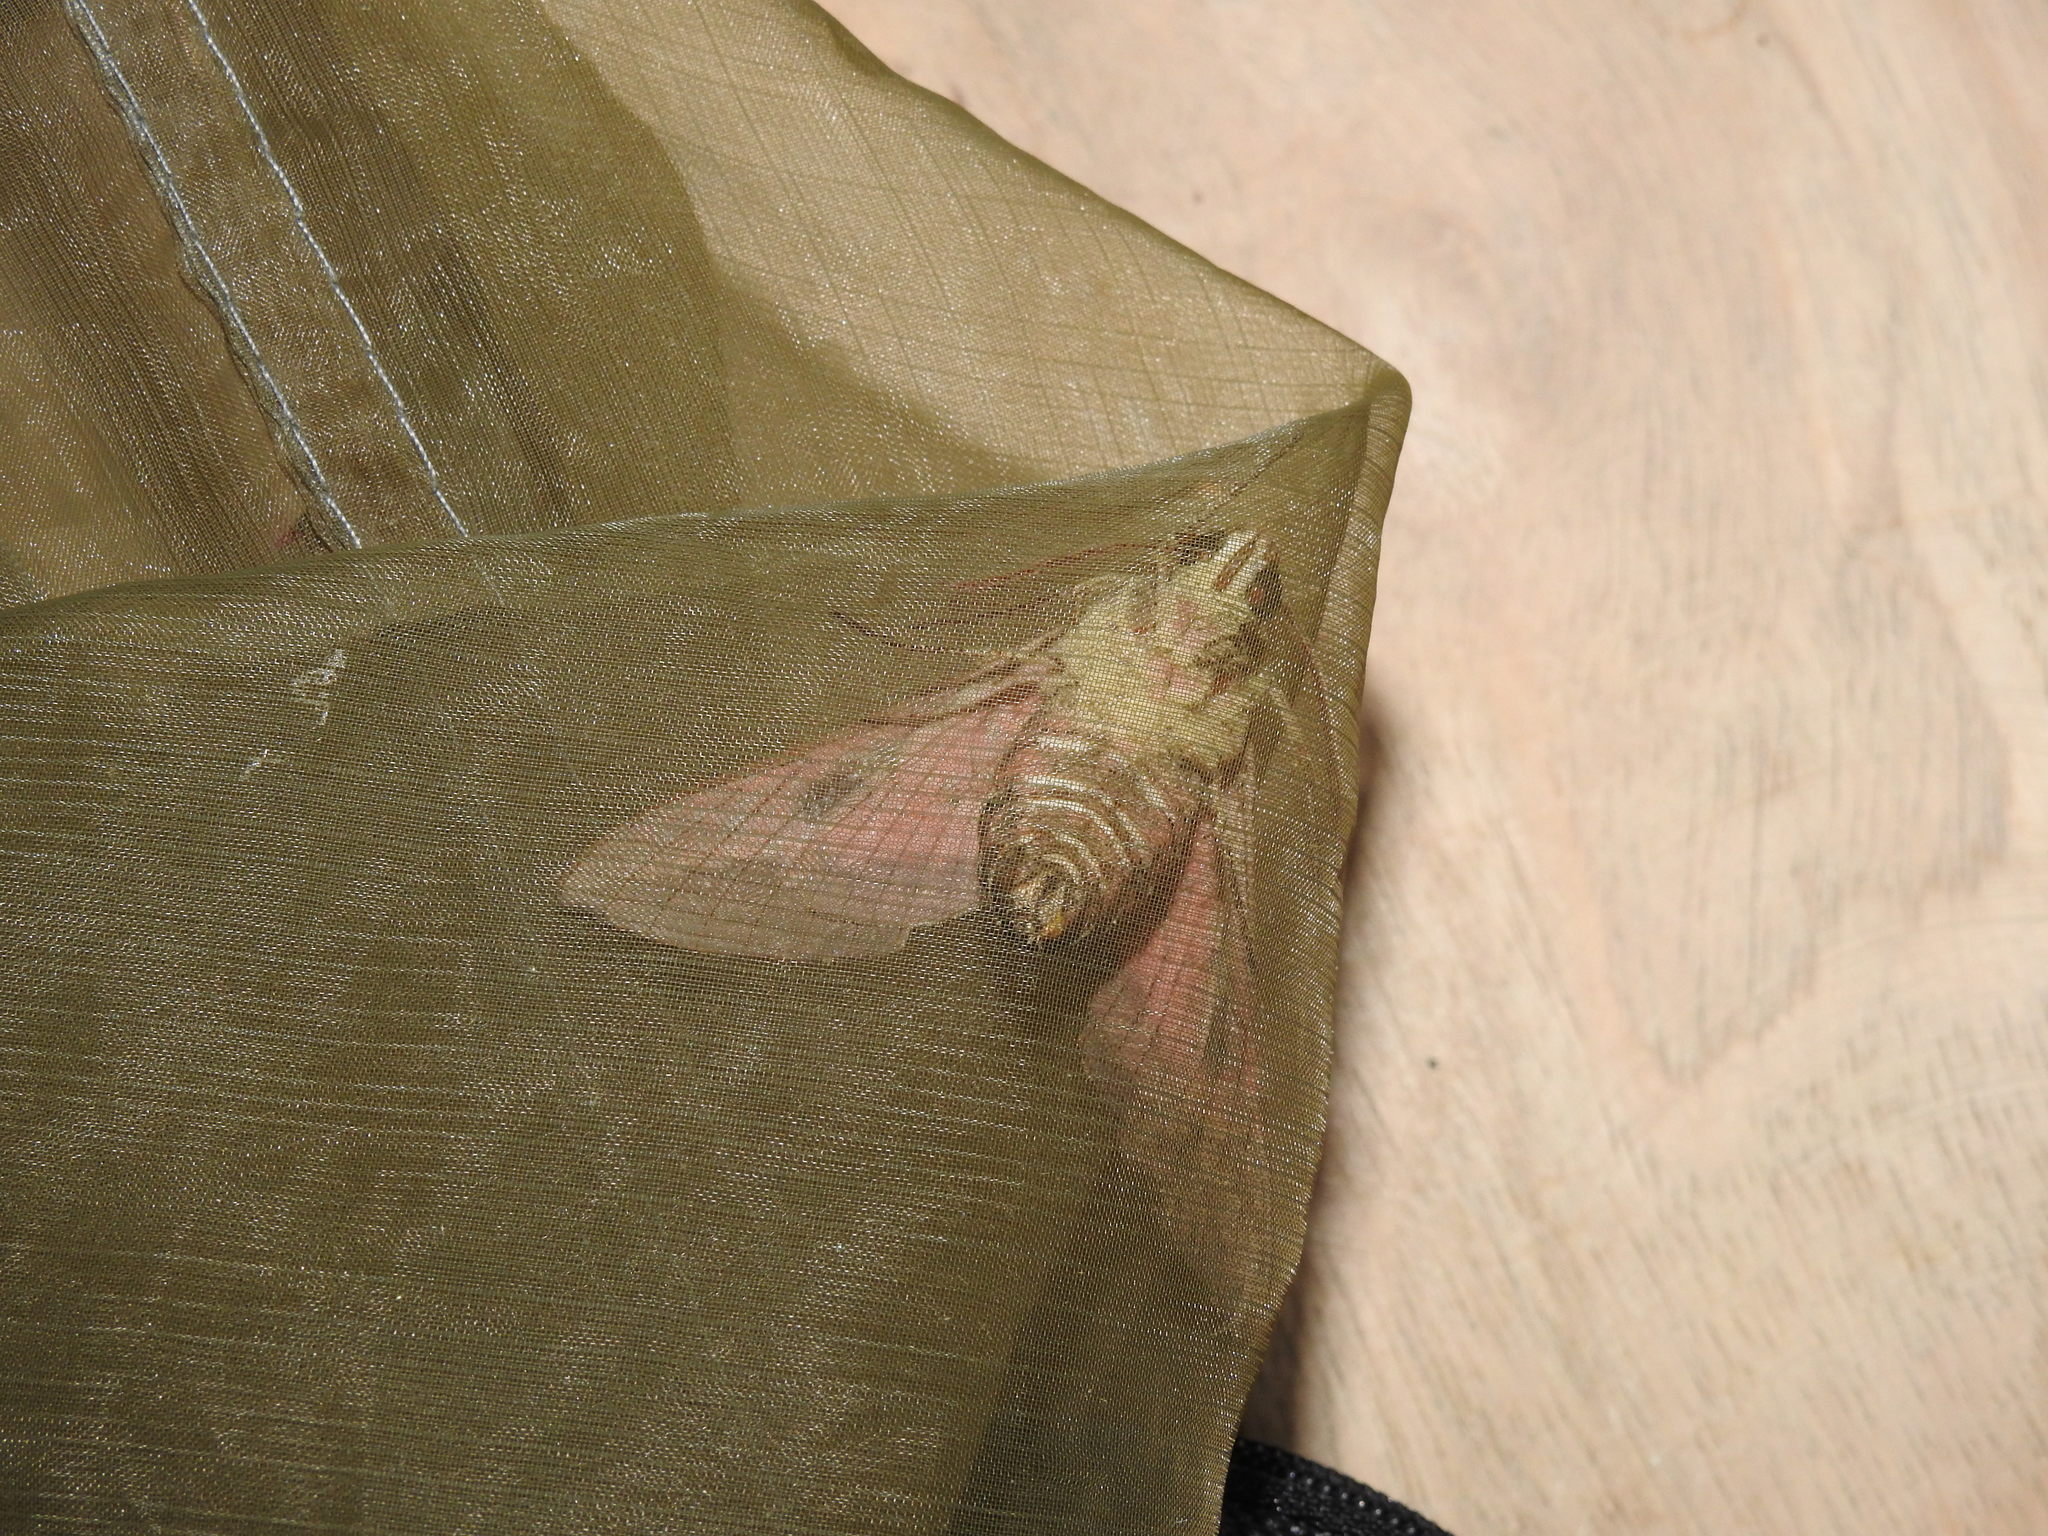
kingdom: Animalia
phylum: Arthropoda
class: Insecta
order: Lepidoptera
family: Sphingidae
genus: Hyles
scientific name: Hyles euphorbiae
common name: Spurge hawk-moth
